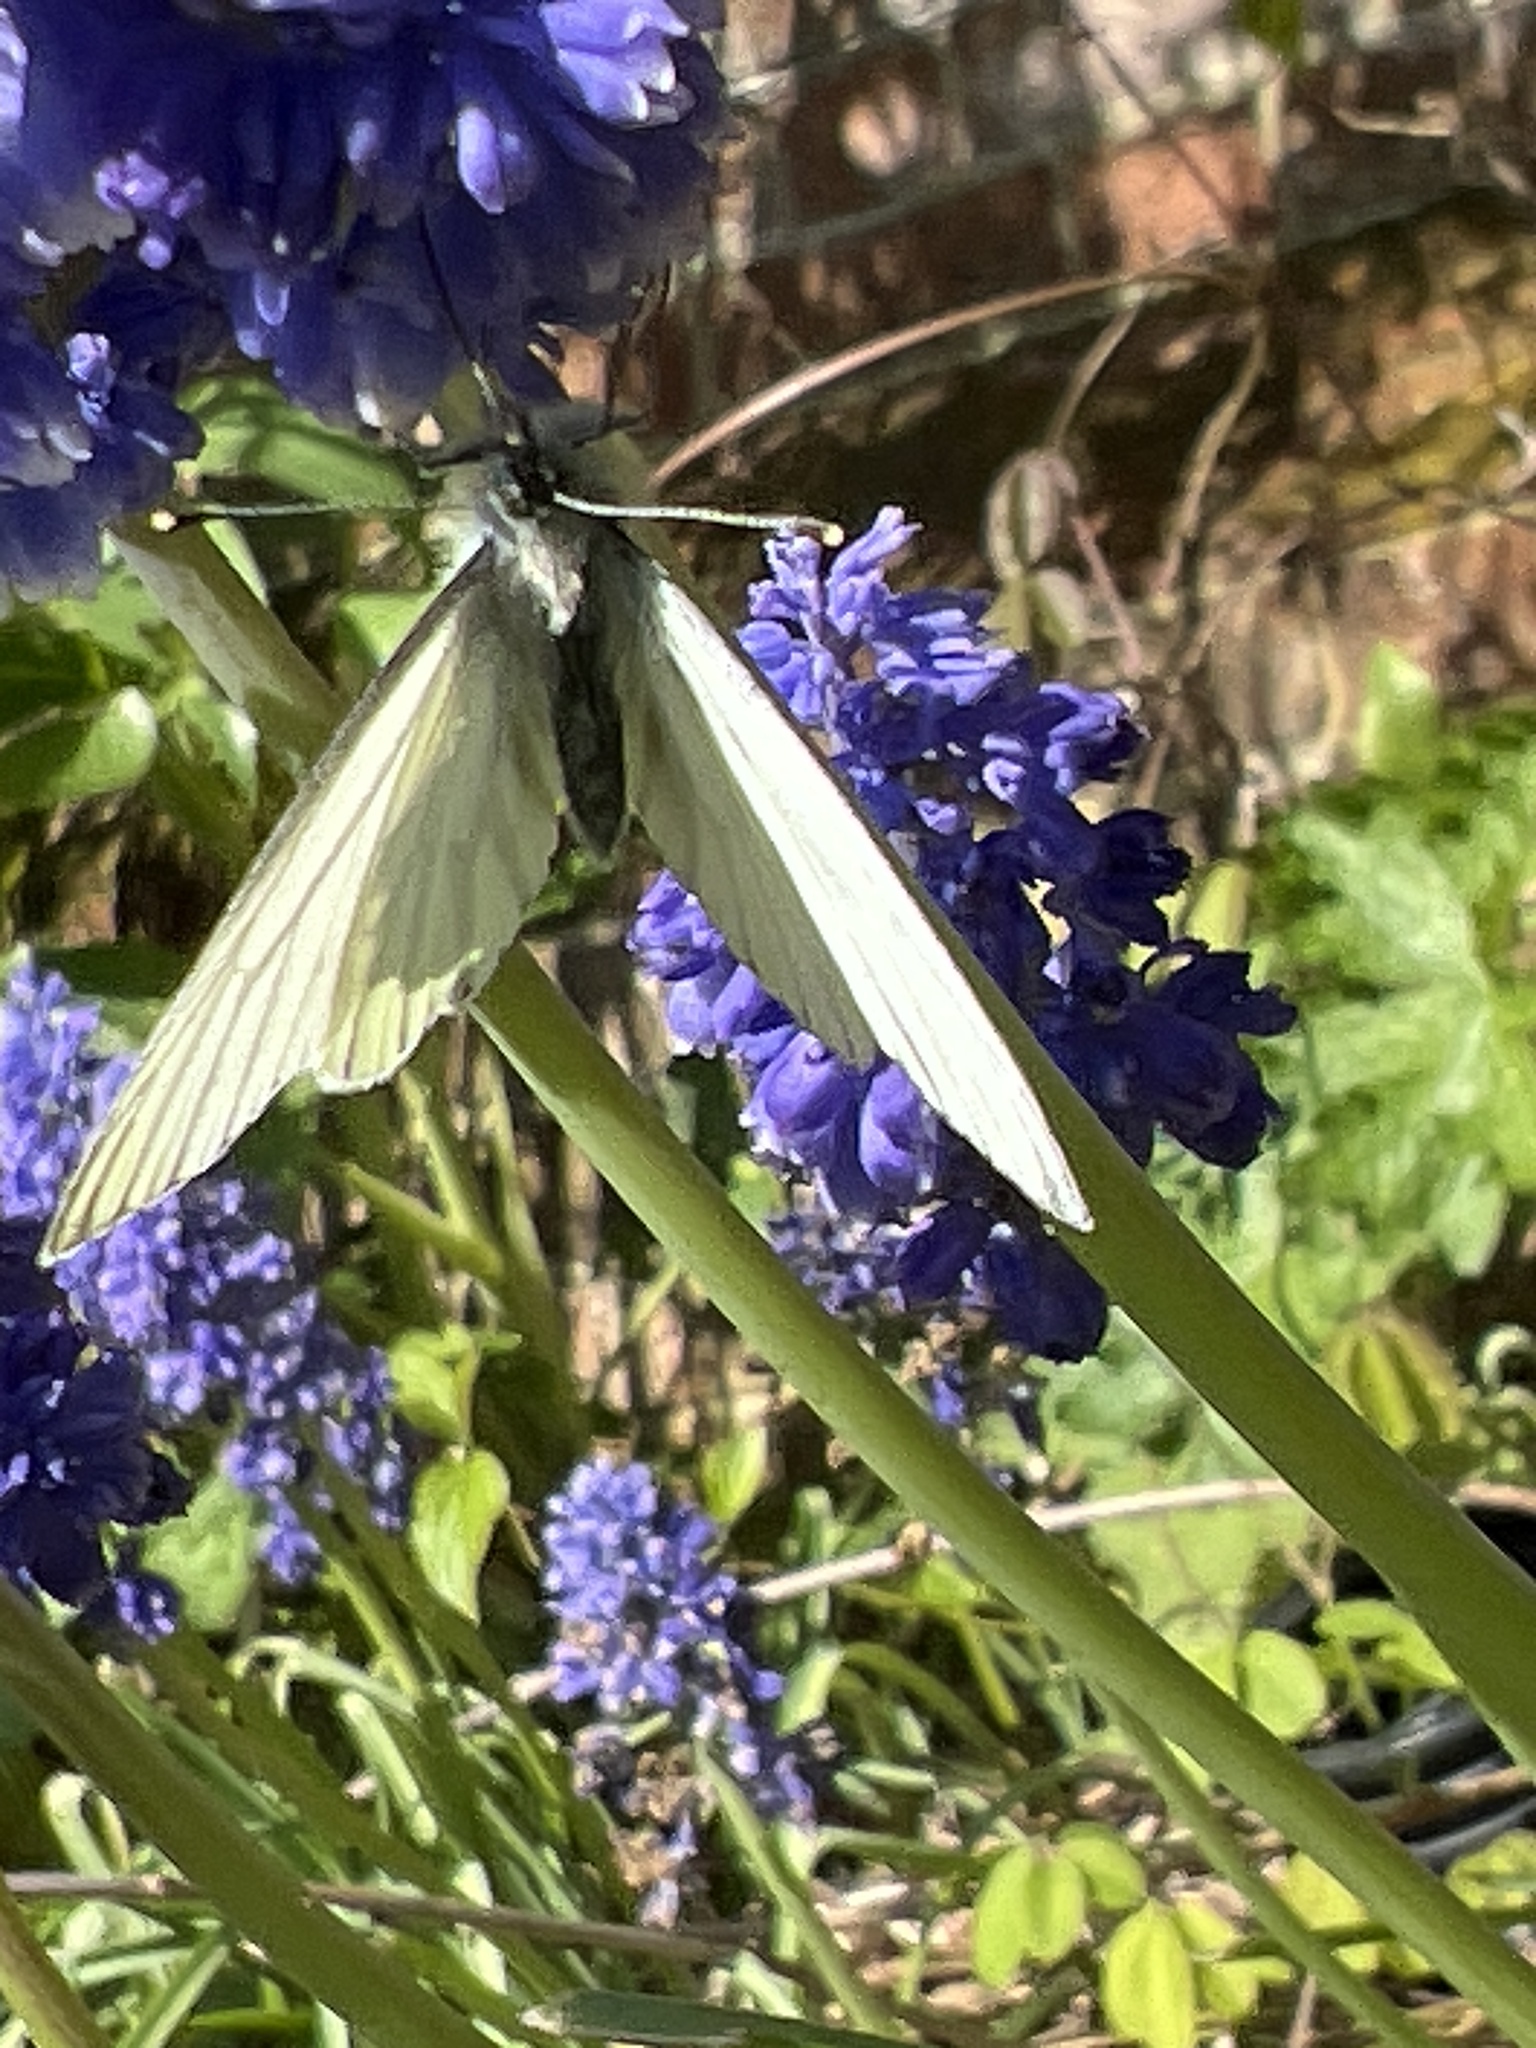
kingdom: Animalia
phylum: Arthropoda
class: Insecta
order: Lepidoptera
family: Pieridae
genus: Pieris
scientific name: Pieris napi
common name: Green-veined white
